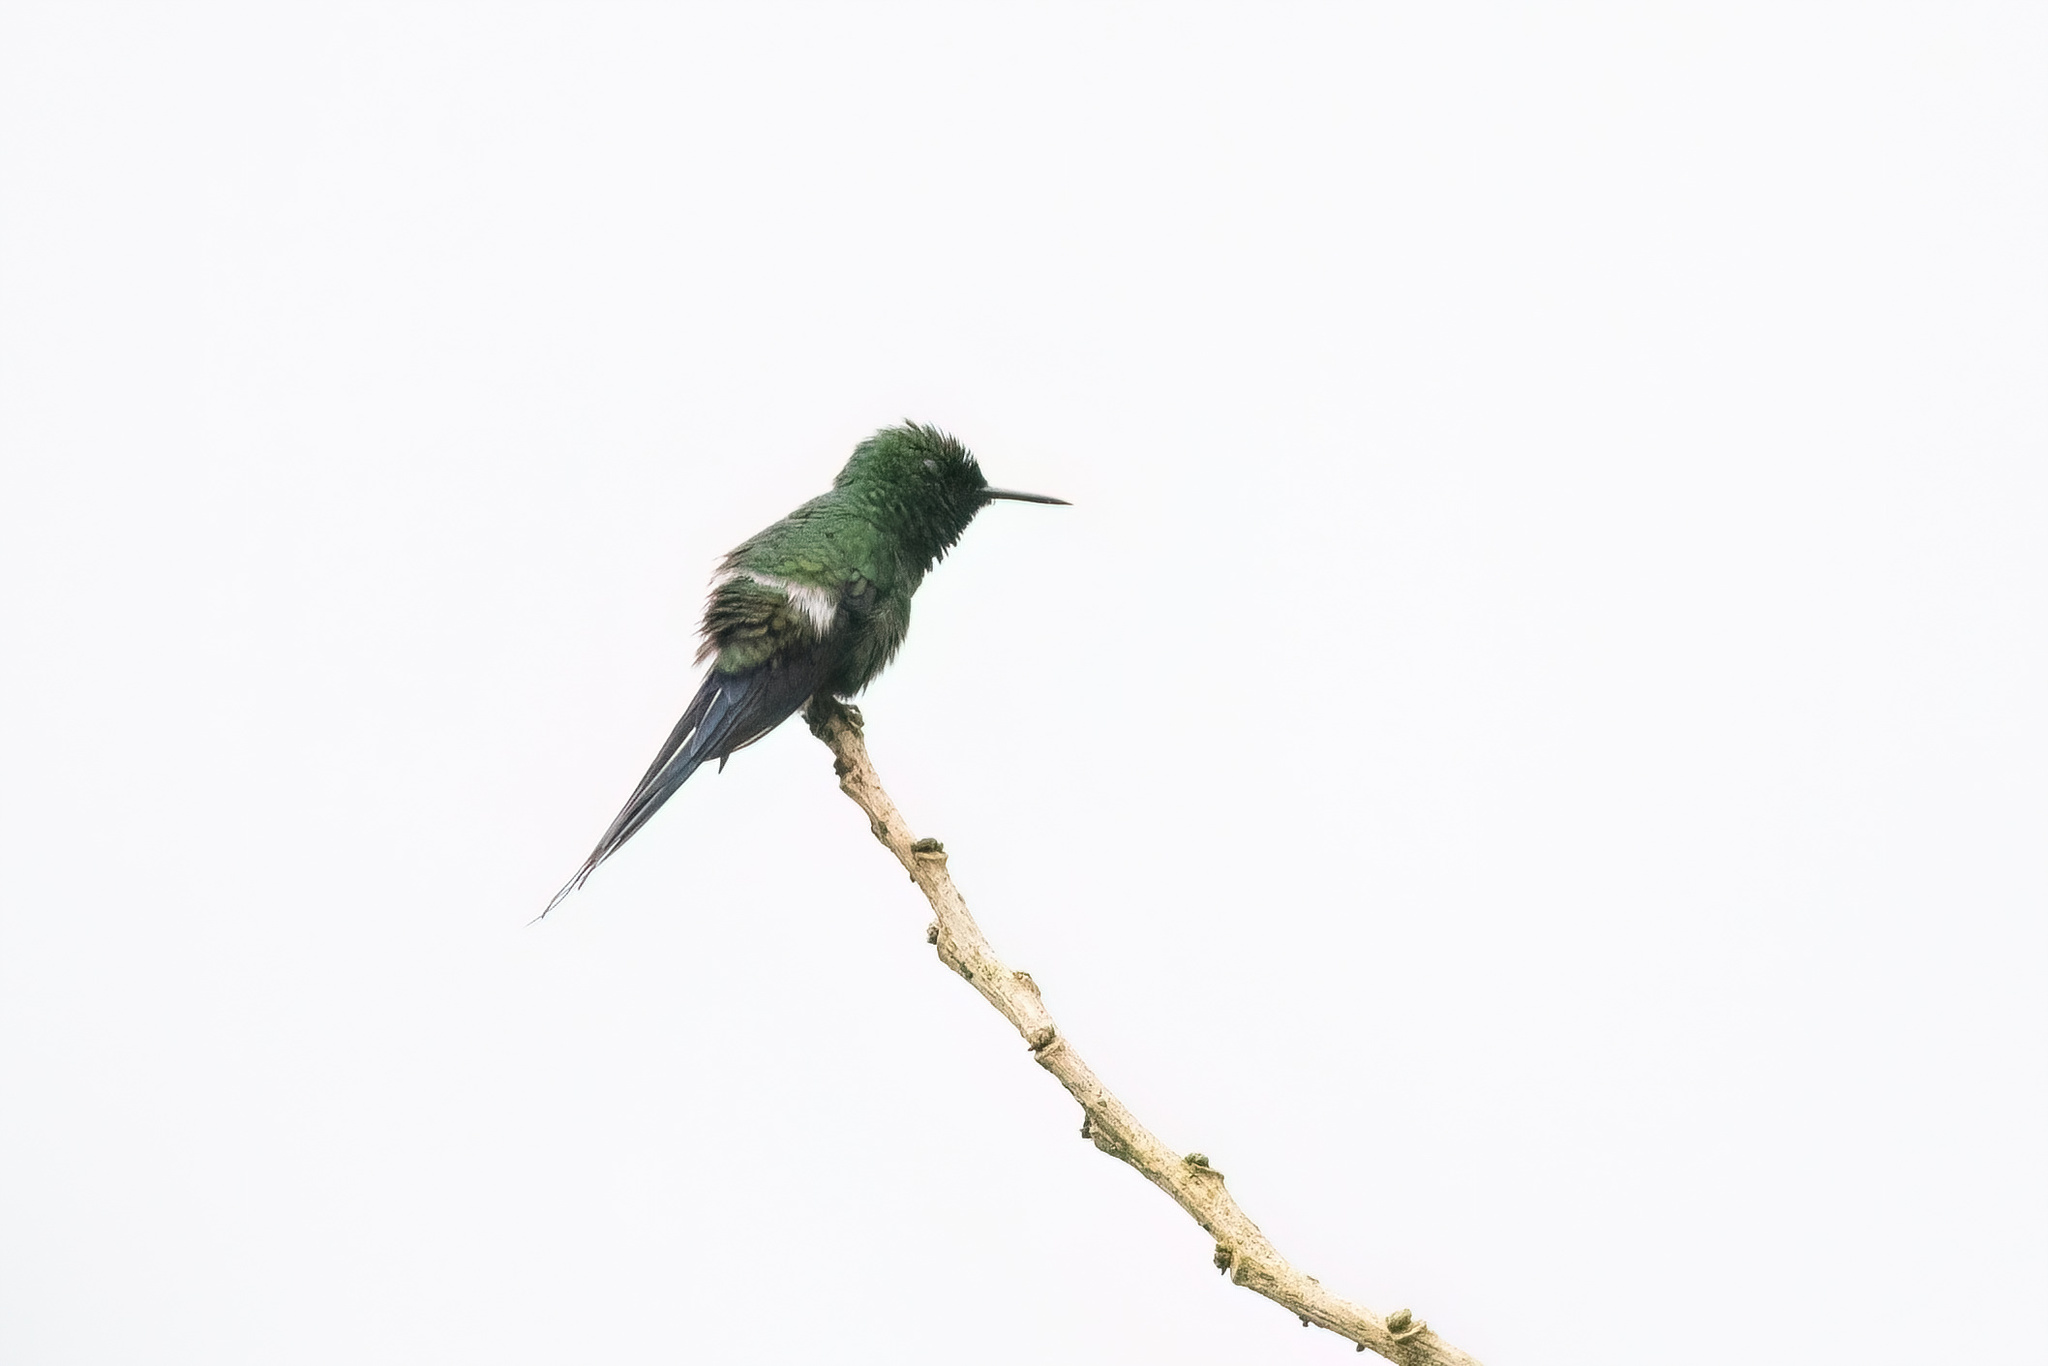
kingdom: Animalia
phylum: Chordata
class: Aves
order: Apodiformes
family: Trochilidae
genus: Discosura
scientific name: Discosura conversii
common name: Green thorntail
